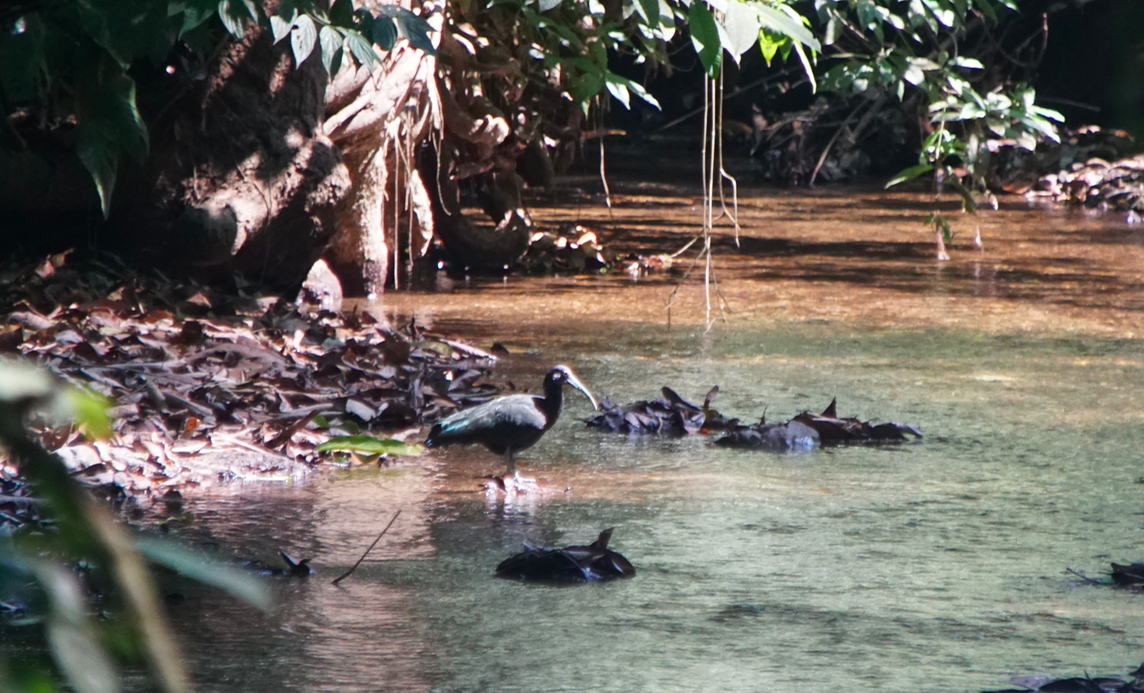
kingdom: Animalia
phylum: Chordata
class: Aves
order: Pelecaniformes
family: Threskiornithidae
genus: Mesembrinibis
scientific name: Mesembrinibis cayennensis
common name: Green ibis
